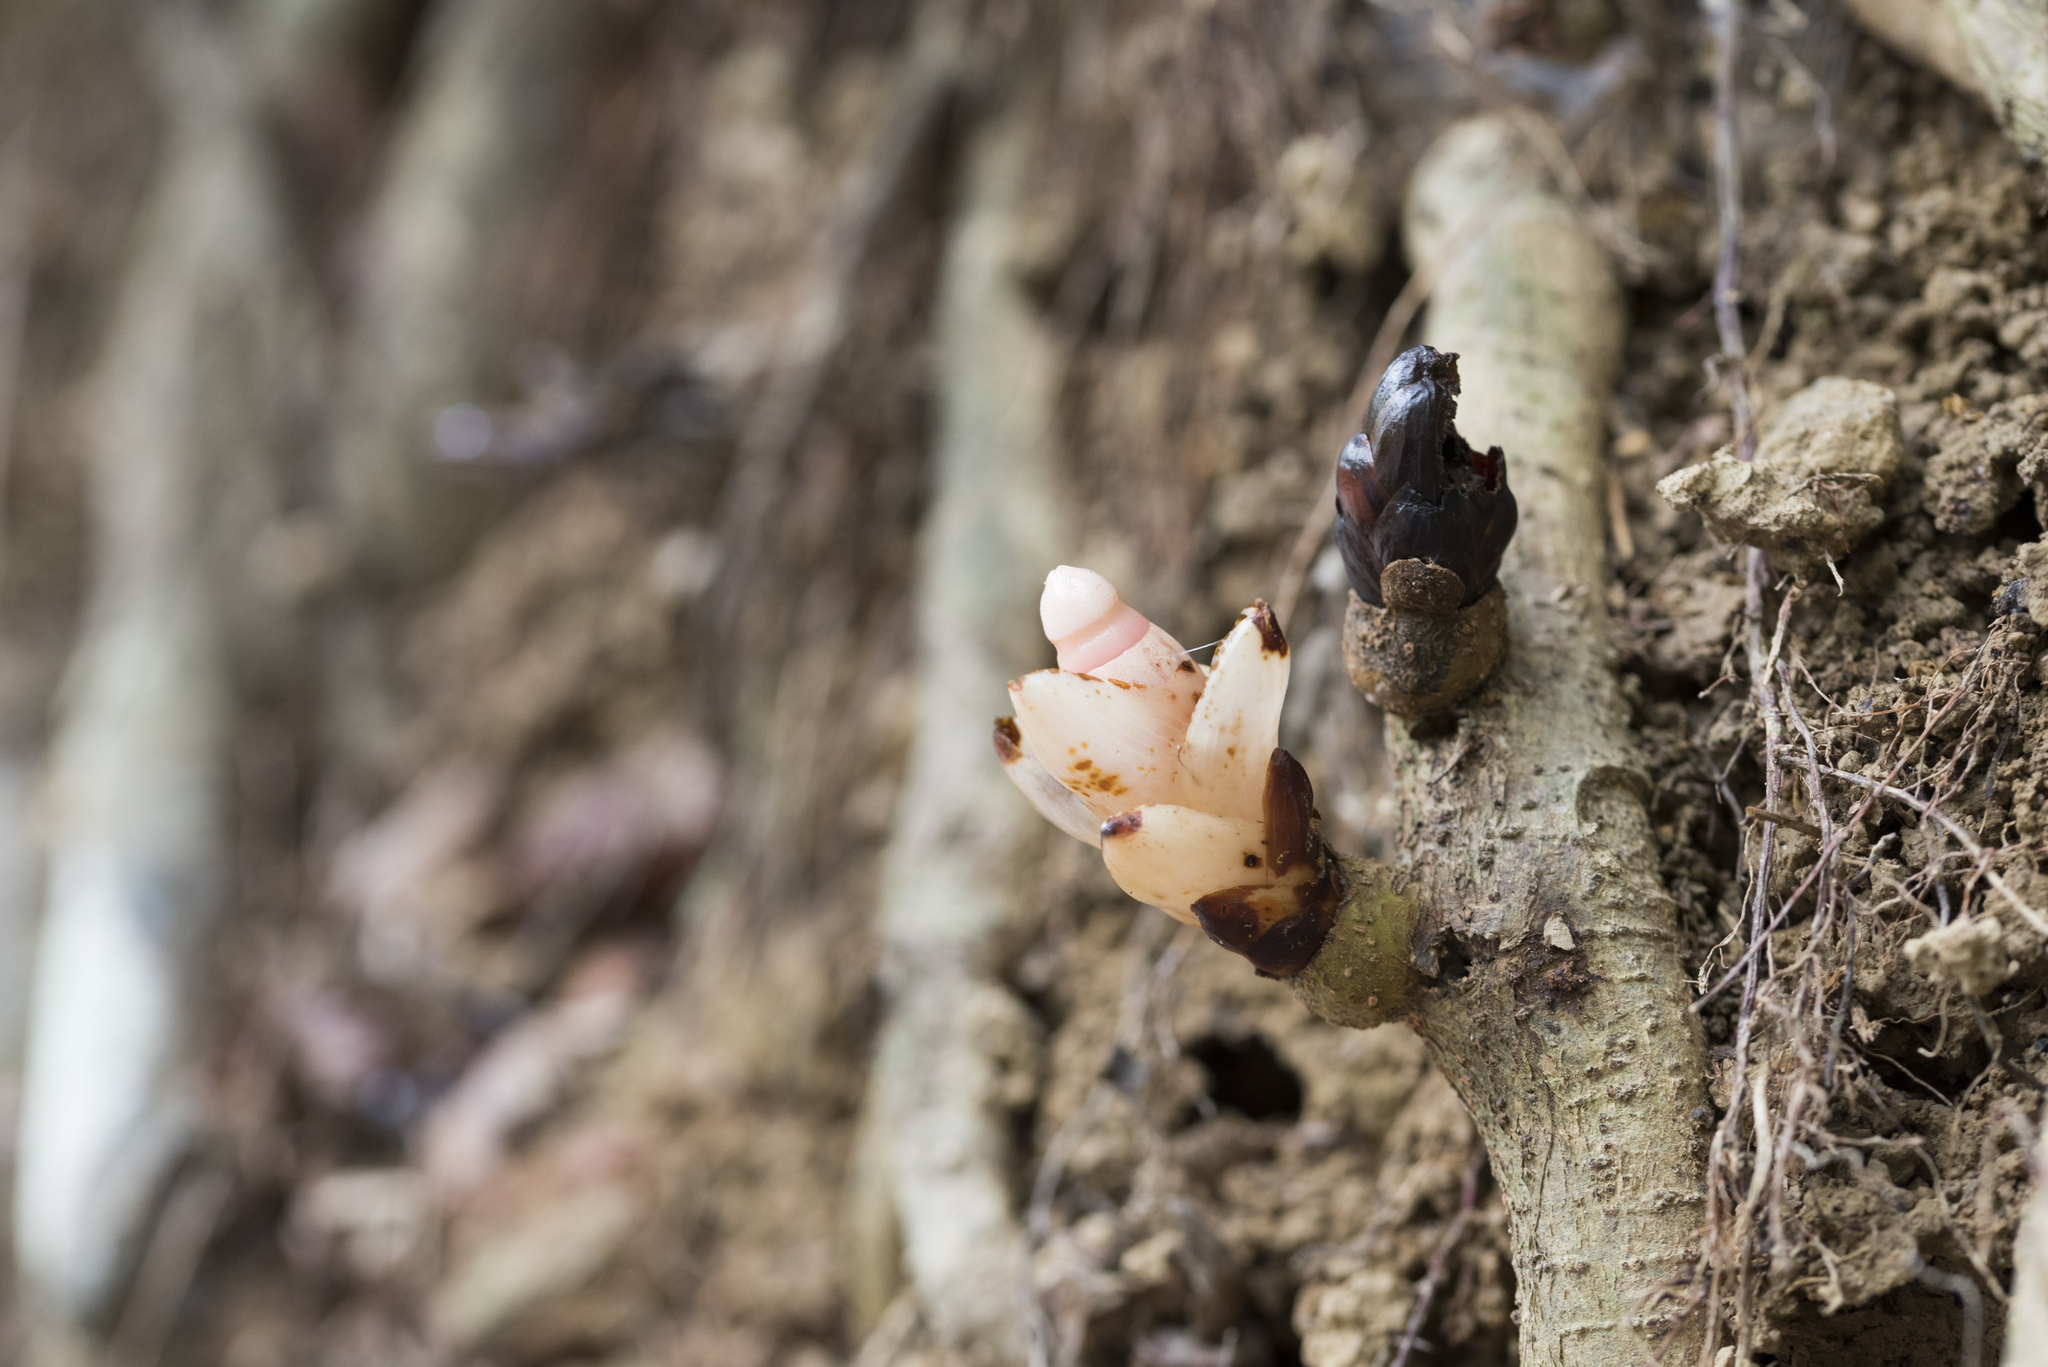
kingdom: Plantae
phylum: Tracheophyta
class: Magnoliopsida
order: Ericales
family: Mitrastemonaceae
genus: Mitrastemon
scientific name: Mitrastemon yamamotoi
